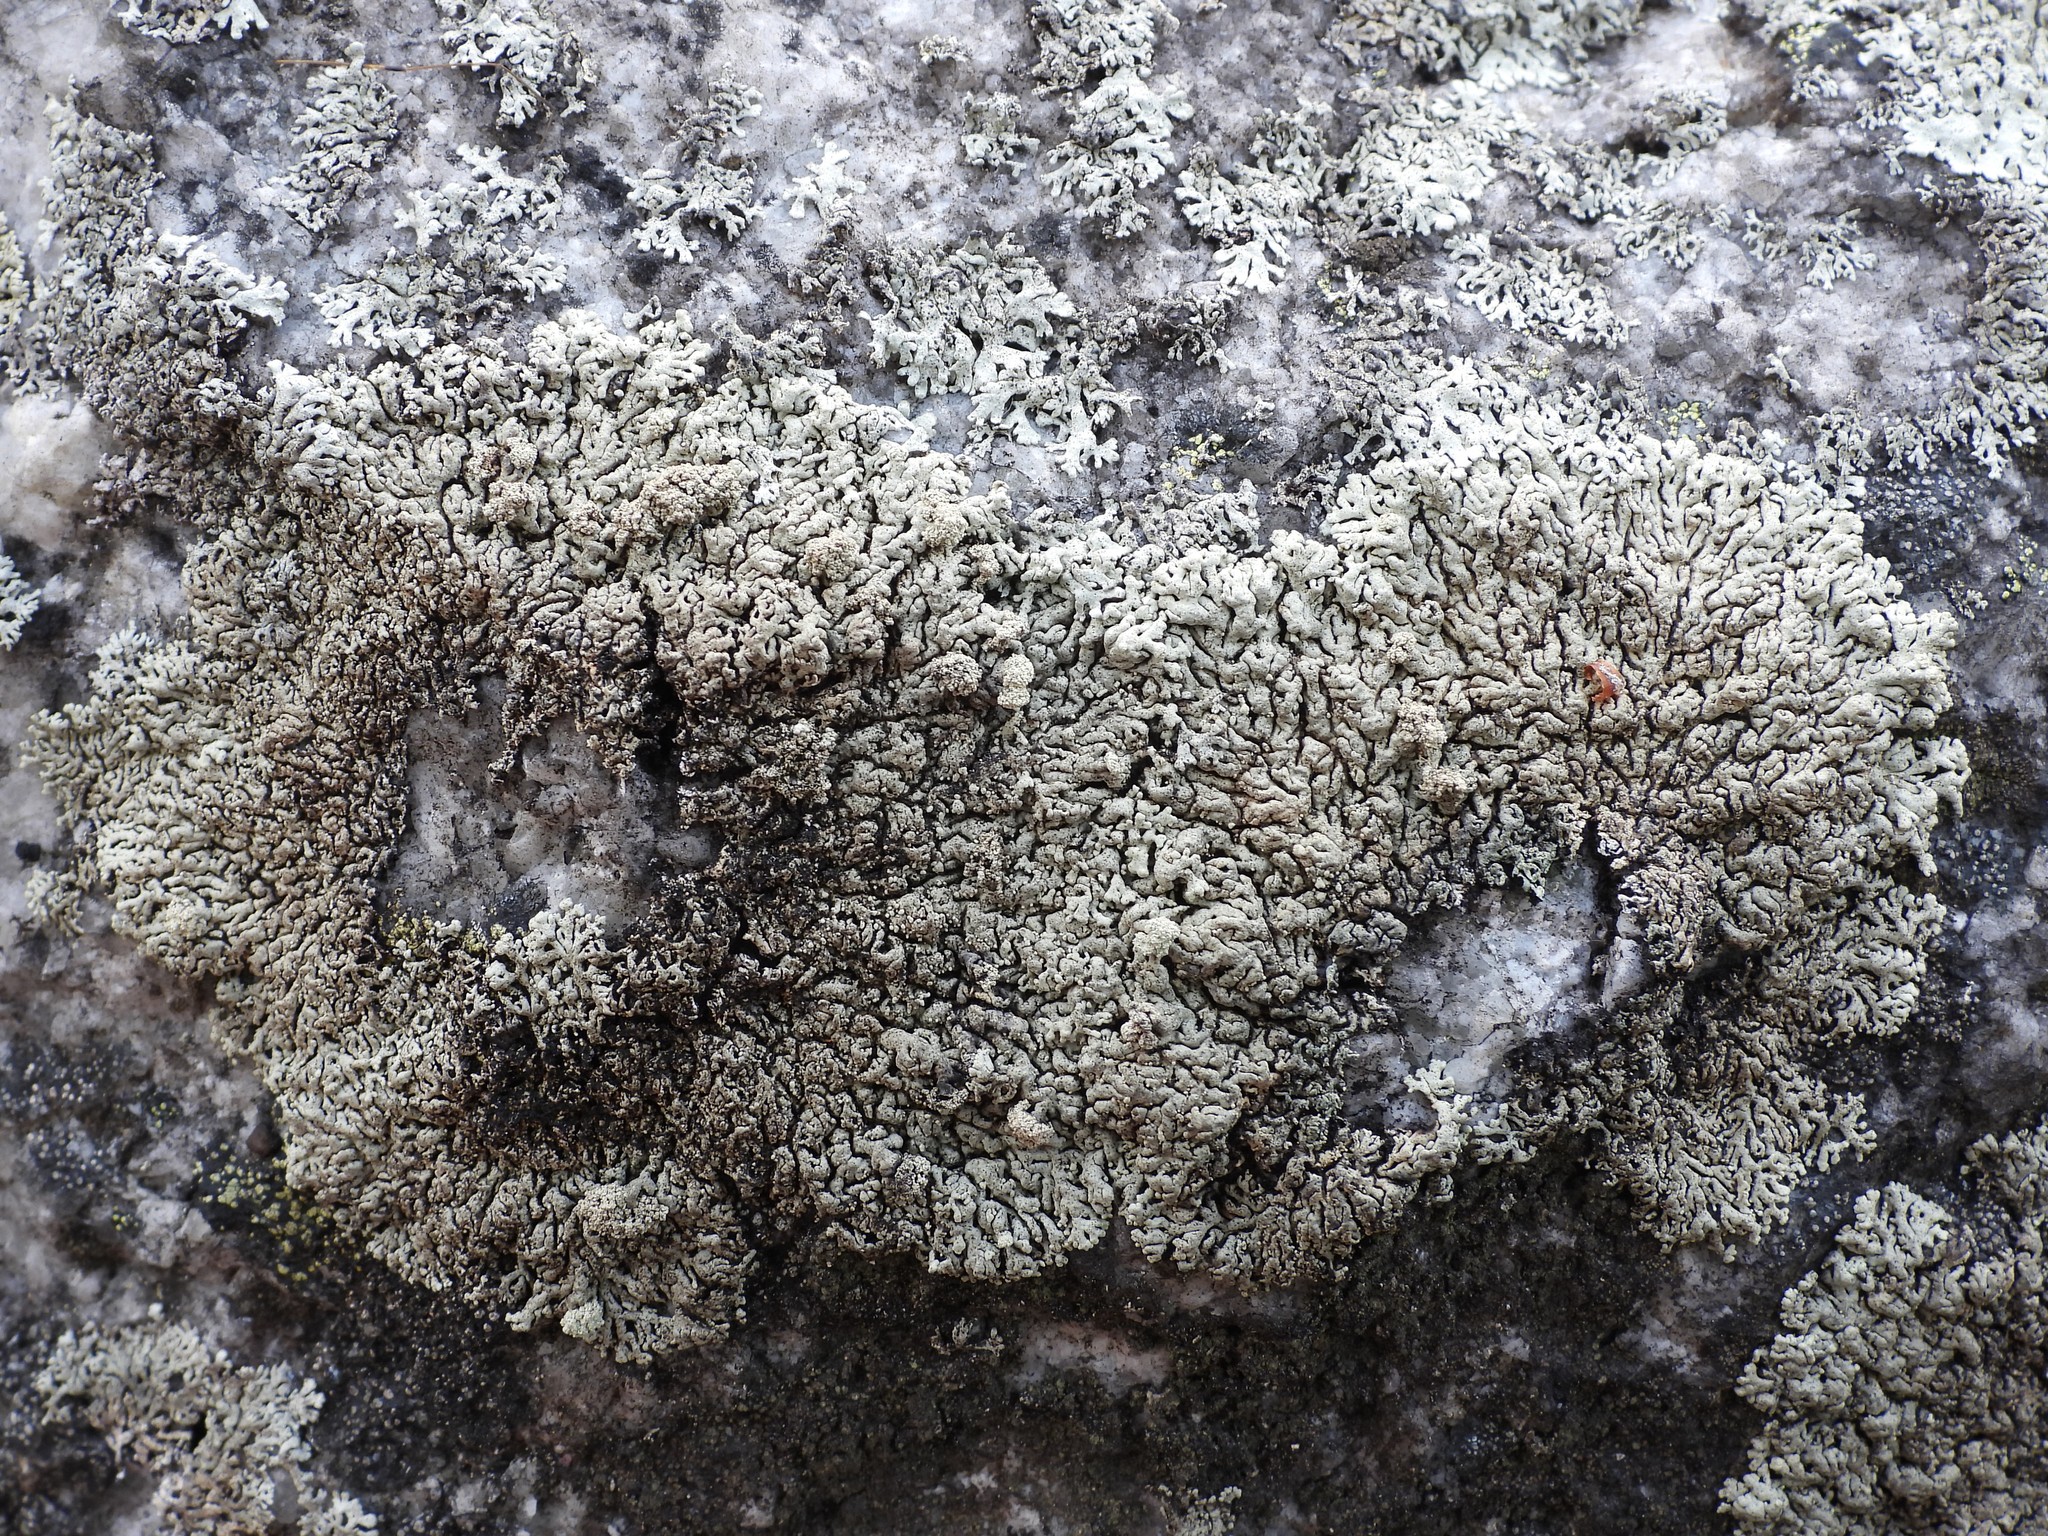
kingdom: Fungi
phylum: Ascomycota
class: Lecanoromycetes
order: Lecanorales
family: Parmeliaceae
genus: Arctoparmelia
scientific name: Arctoparmelia incurva
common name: Bent ring lichen
